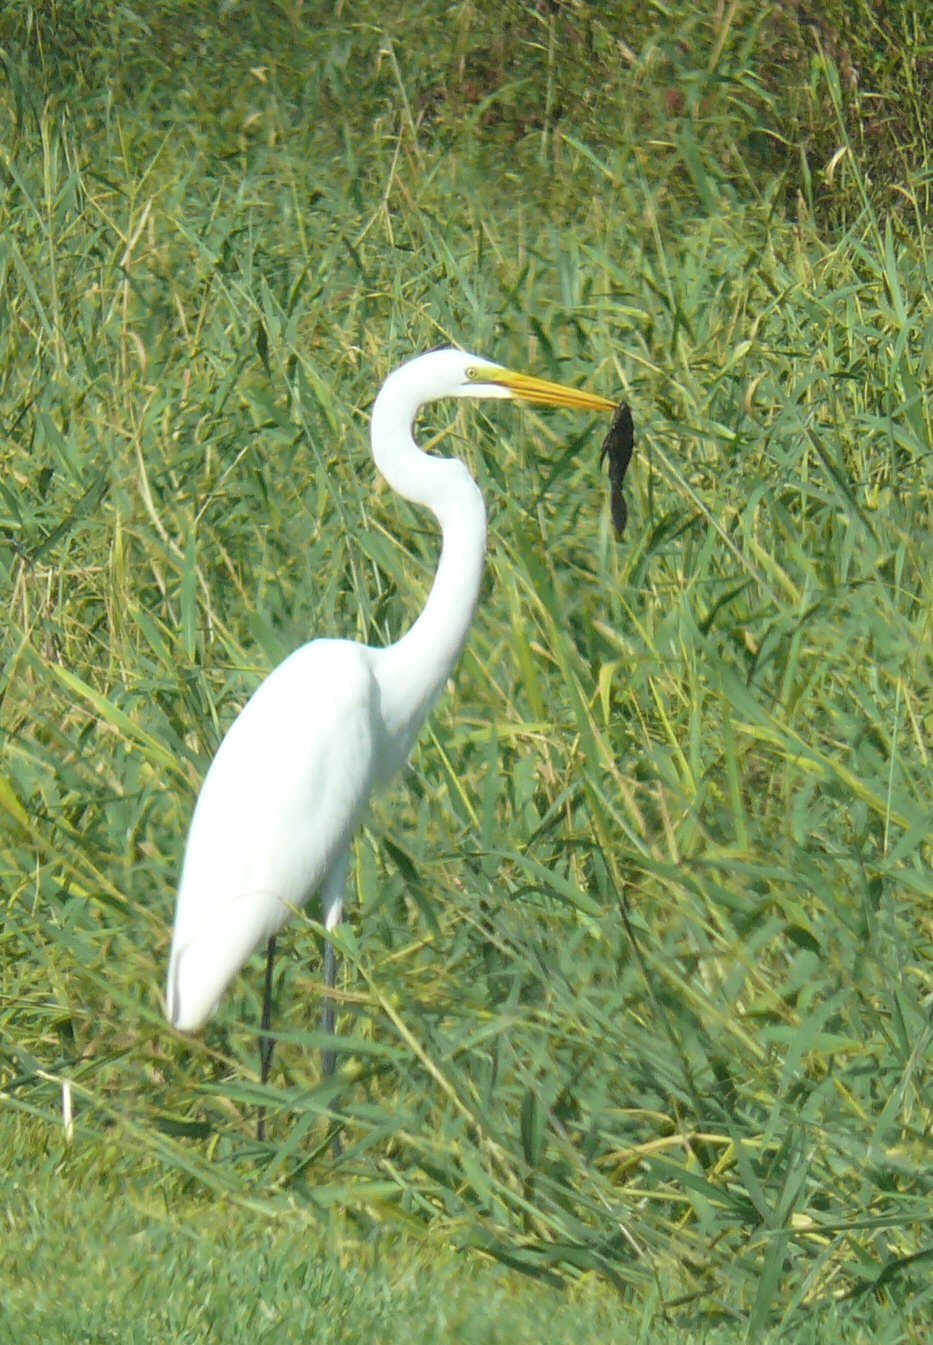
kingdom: Animalia
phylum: Chordata
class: Aves
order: Pelecaniformes
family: Ardeidae
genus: Ardea
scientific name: Ardea alba
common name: Great egret
